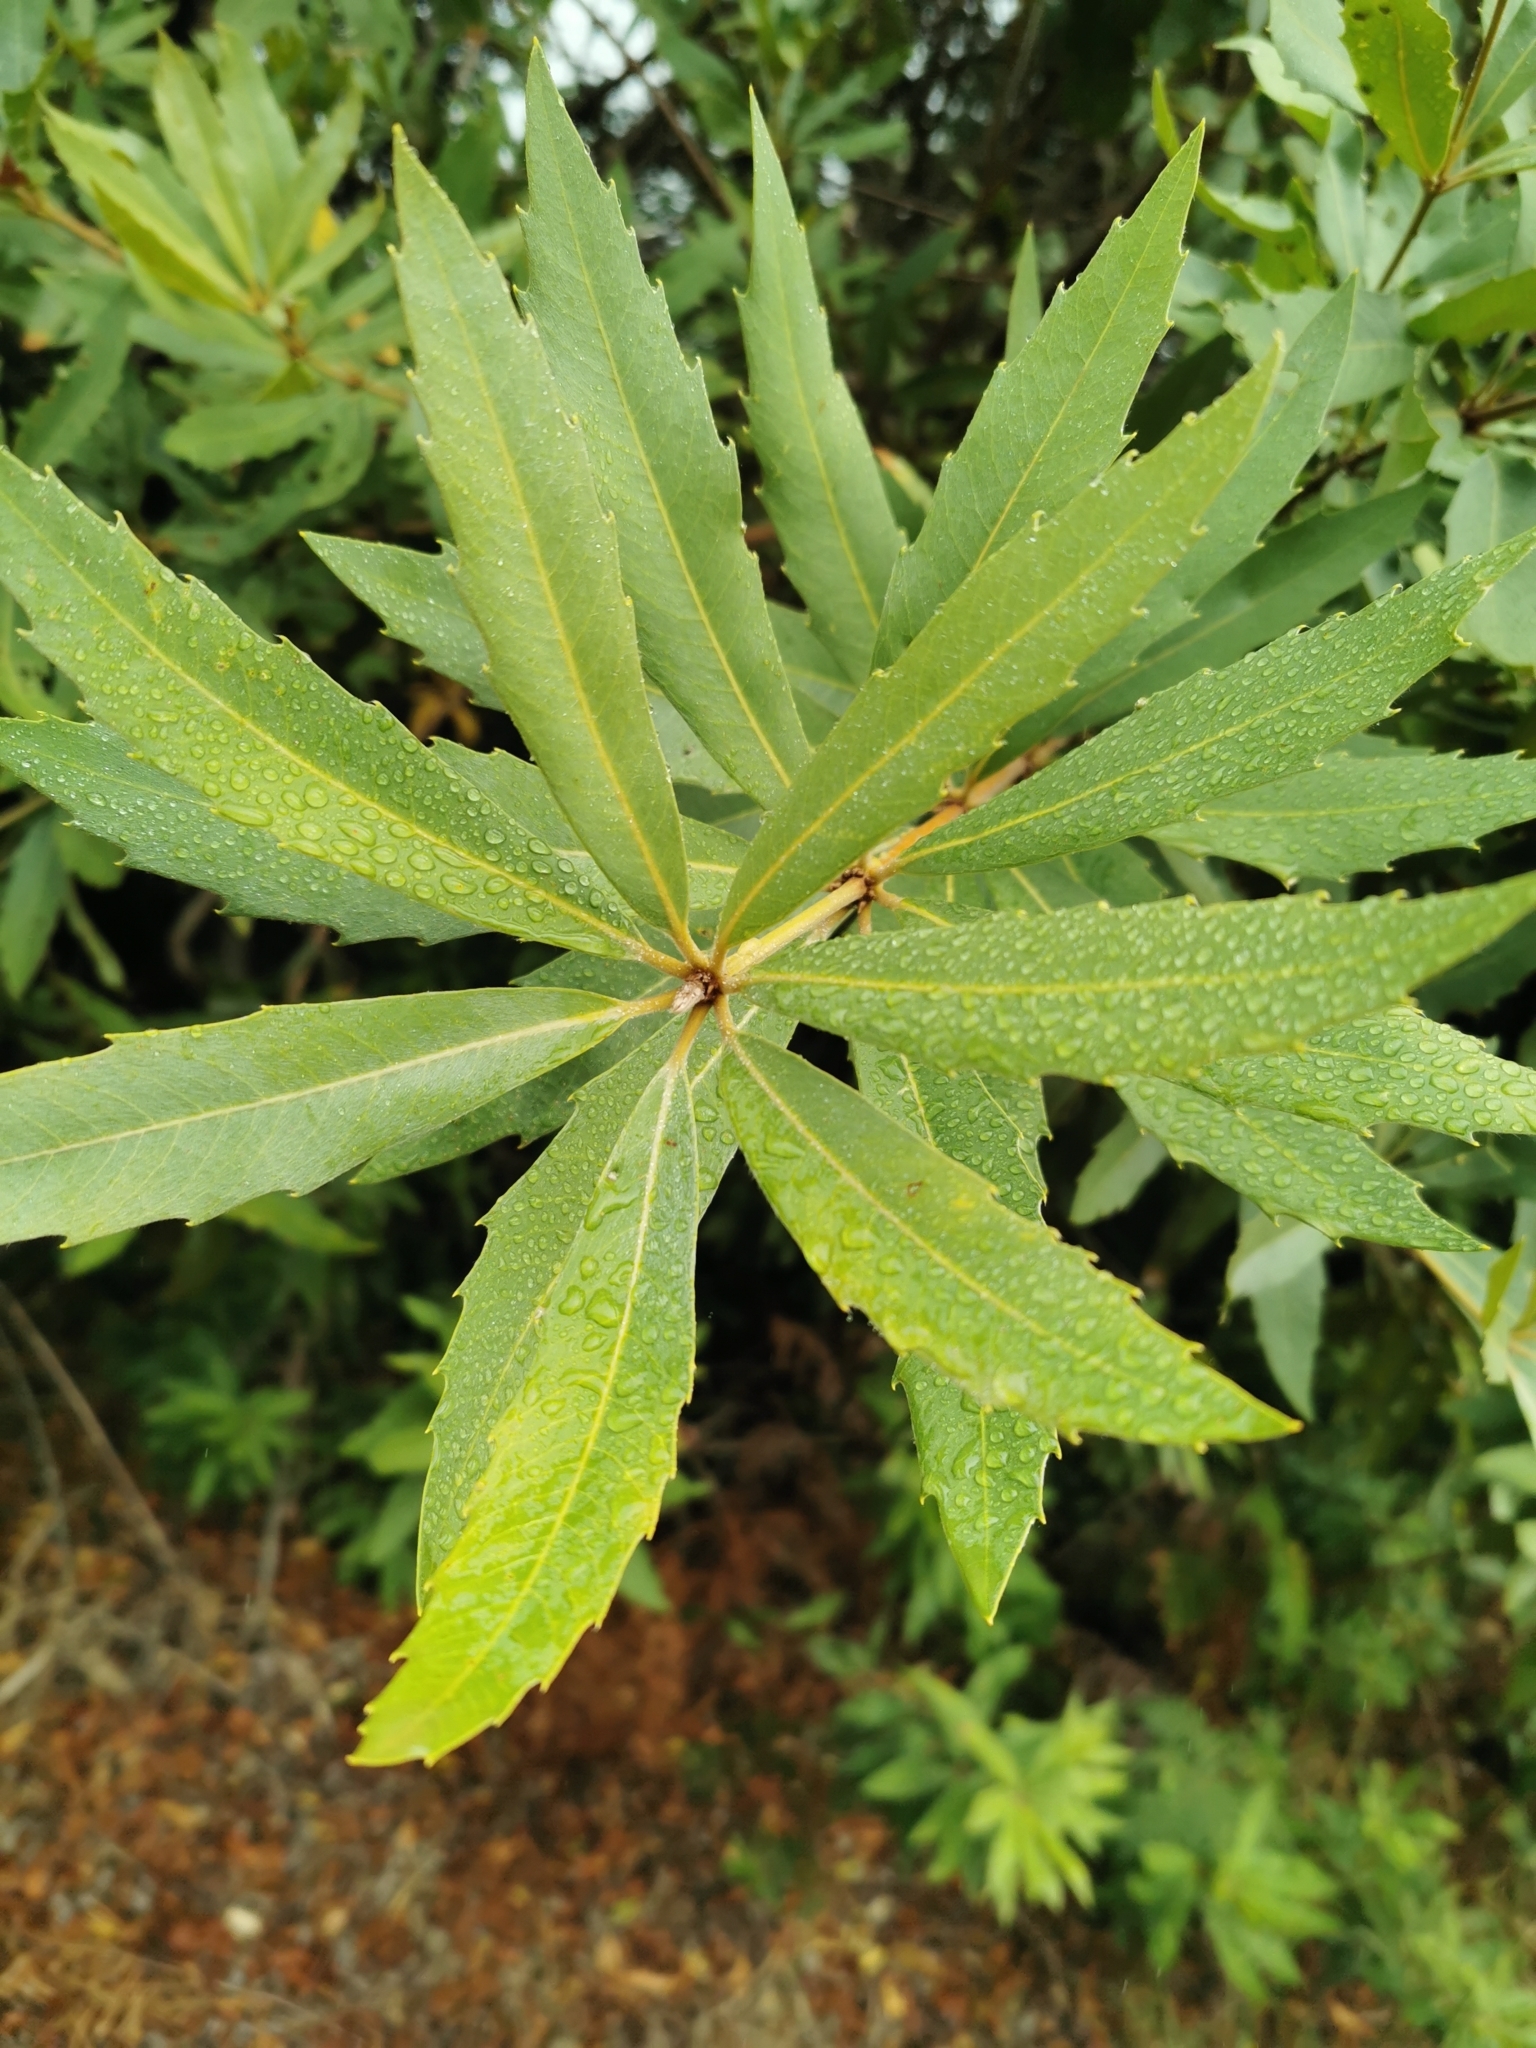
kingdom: Plantae
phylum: Tracheophyta
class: Magnoliopsida
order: Proteales
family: Proteaceae
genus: Brabejum
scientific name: Brabejum stellatifolium
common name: Wild almond
